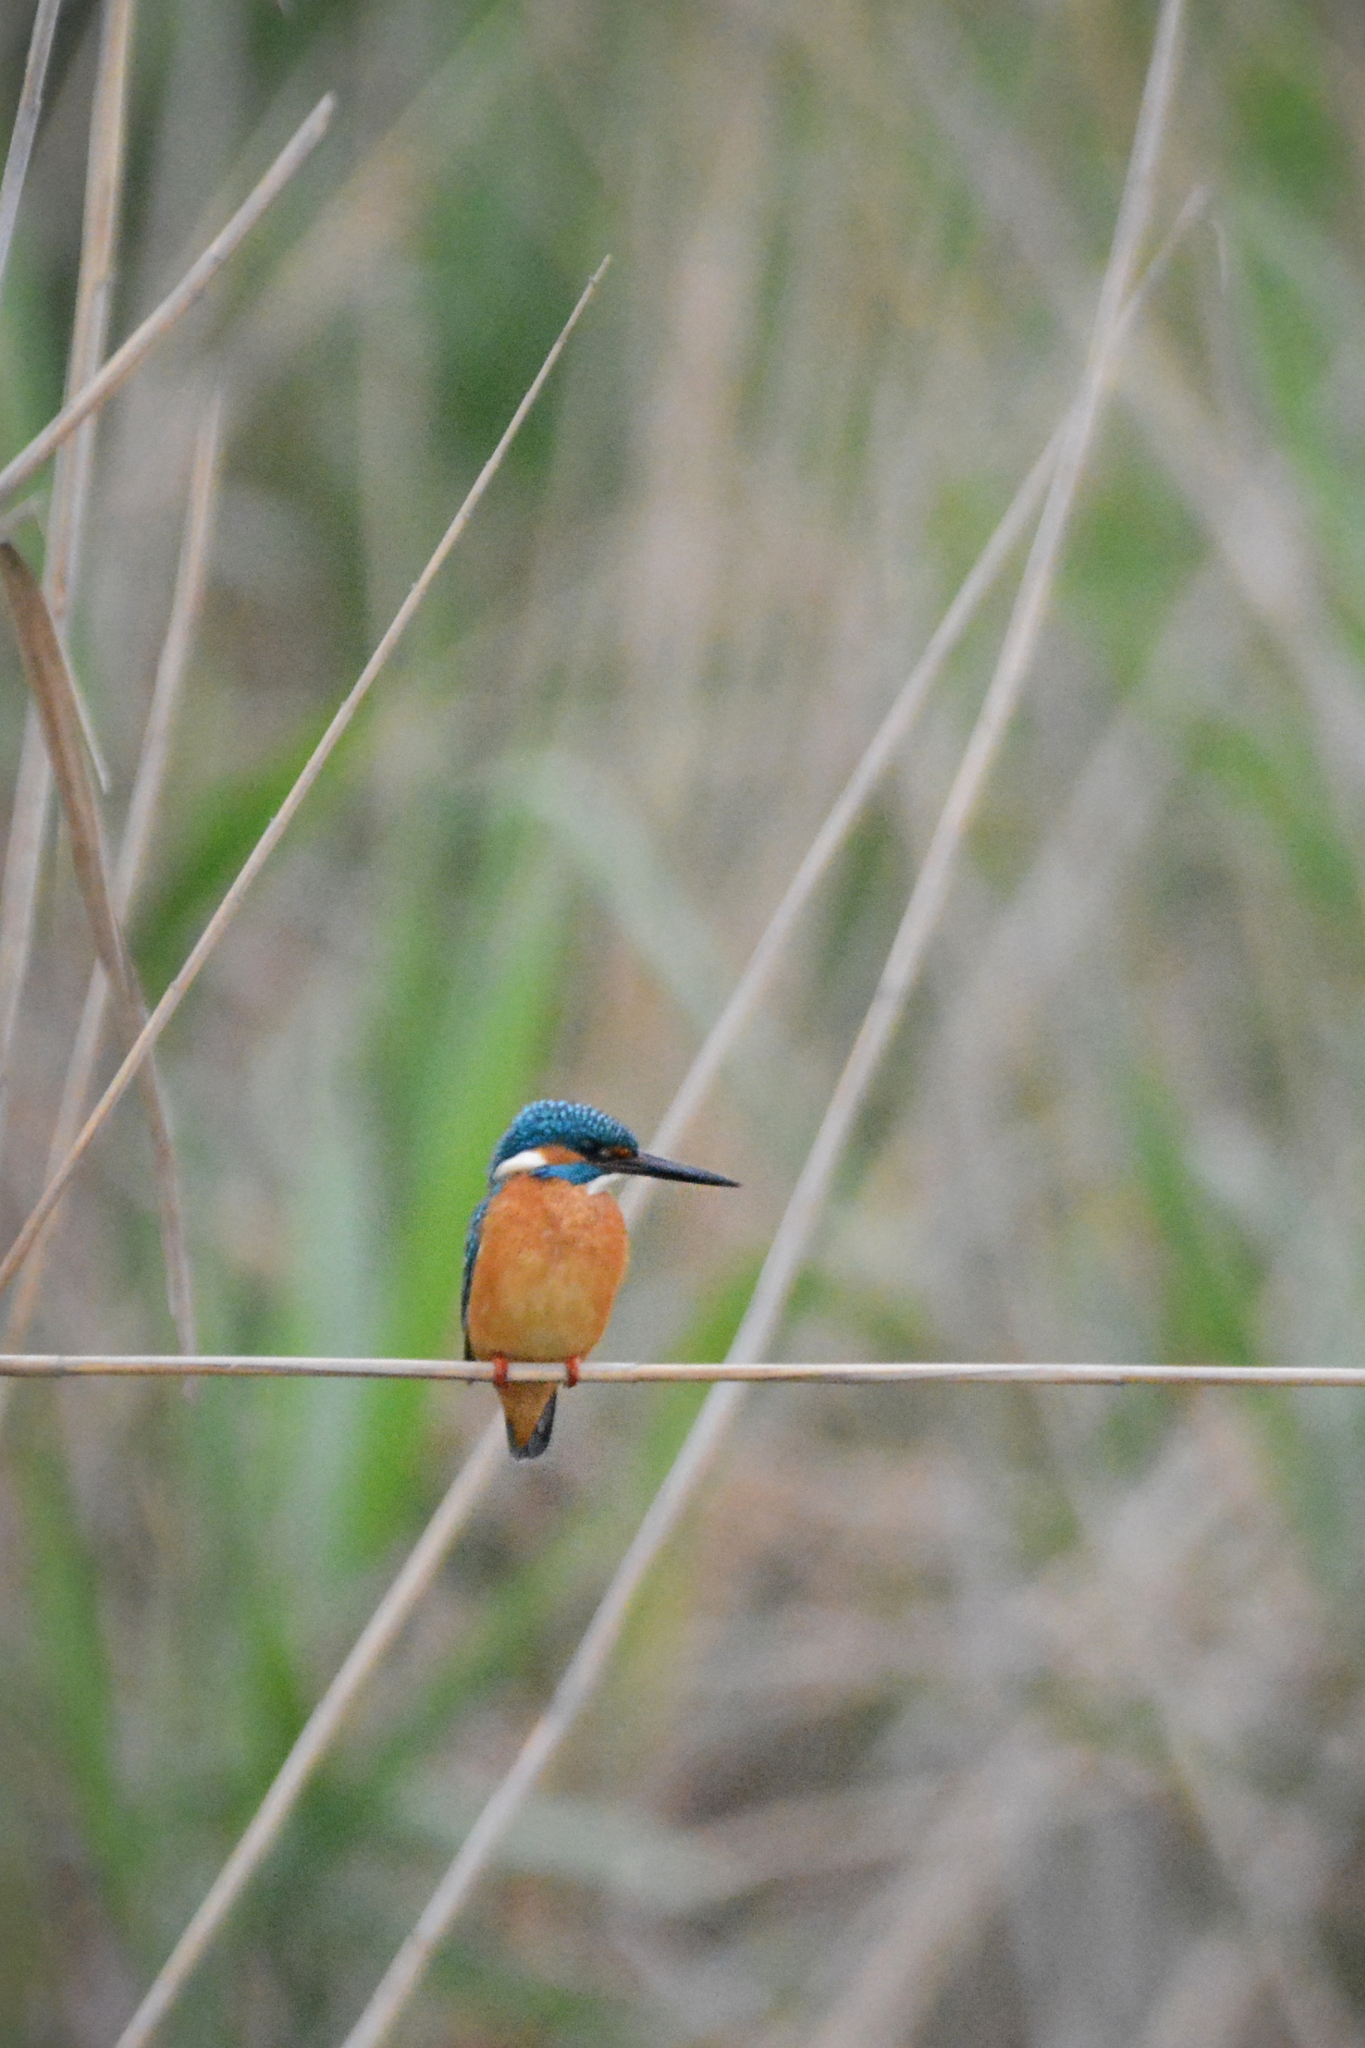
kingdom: Animalia
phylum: Chordata
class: Aves
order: Coraciiformes
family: Alcedinidae
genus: Alcedo
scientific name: Alcedo atthis
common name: Common kingfisher
